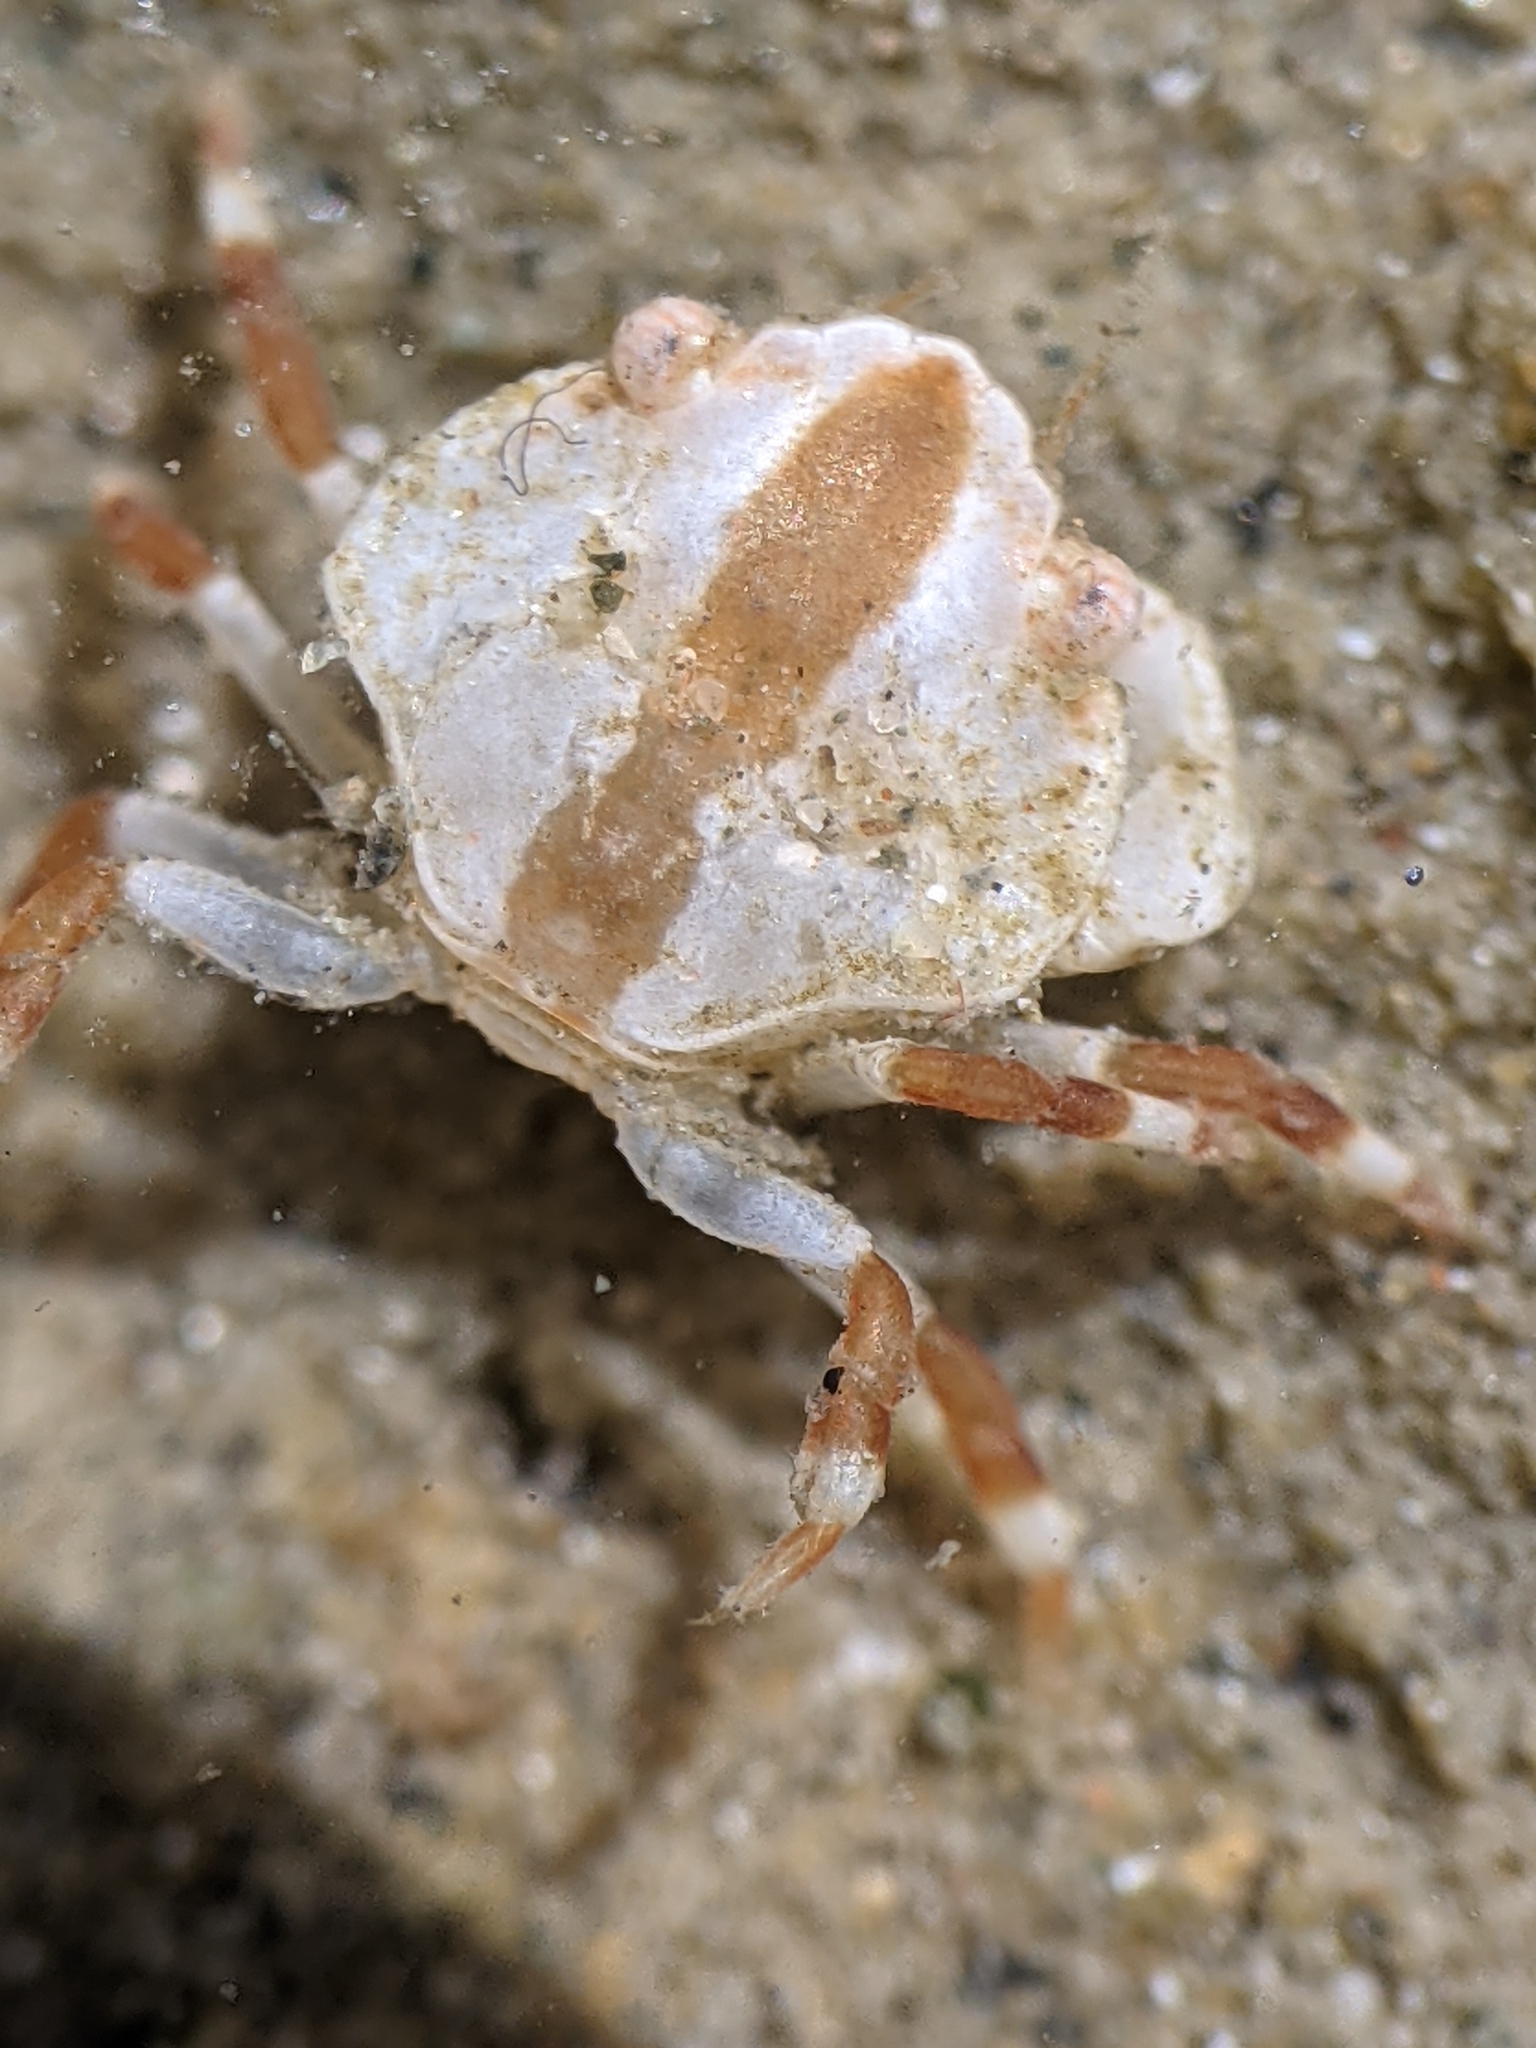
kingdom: Animalia
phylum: Arthropoda
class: Malacostraca
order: Decapoda
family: Cancridae
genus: Cancer
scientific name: Cancer productus
